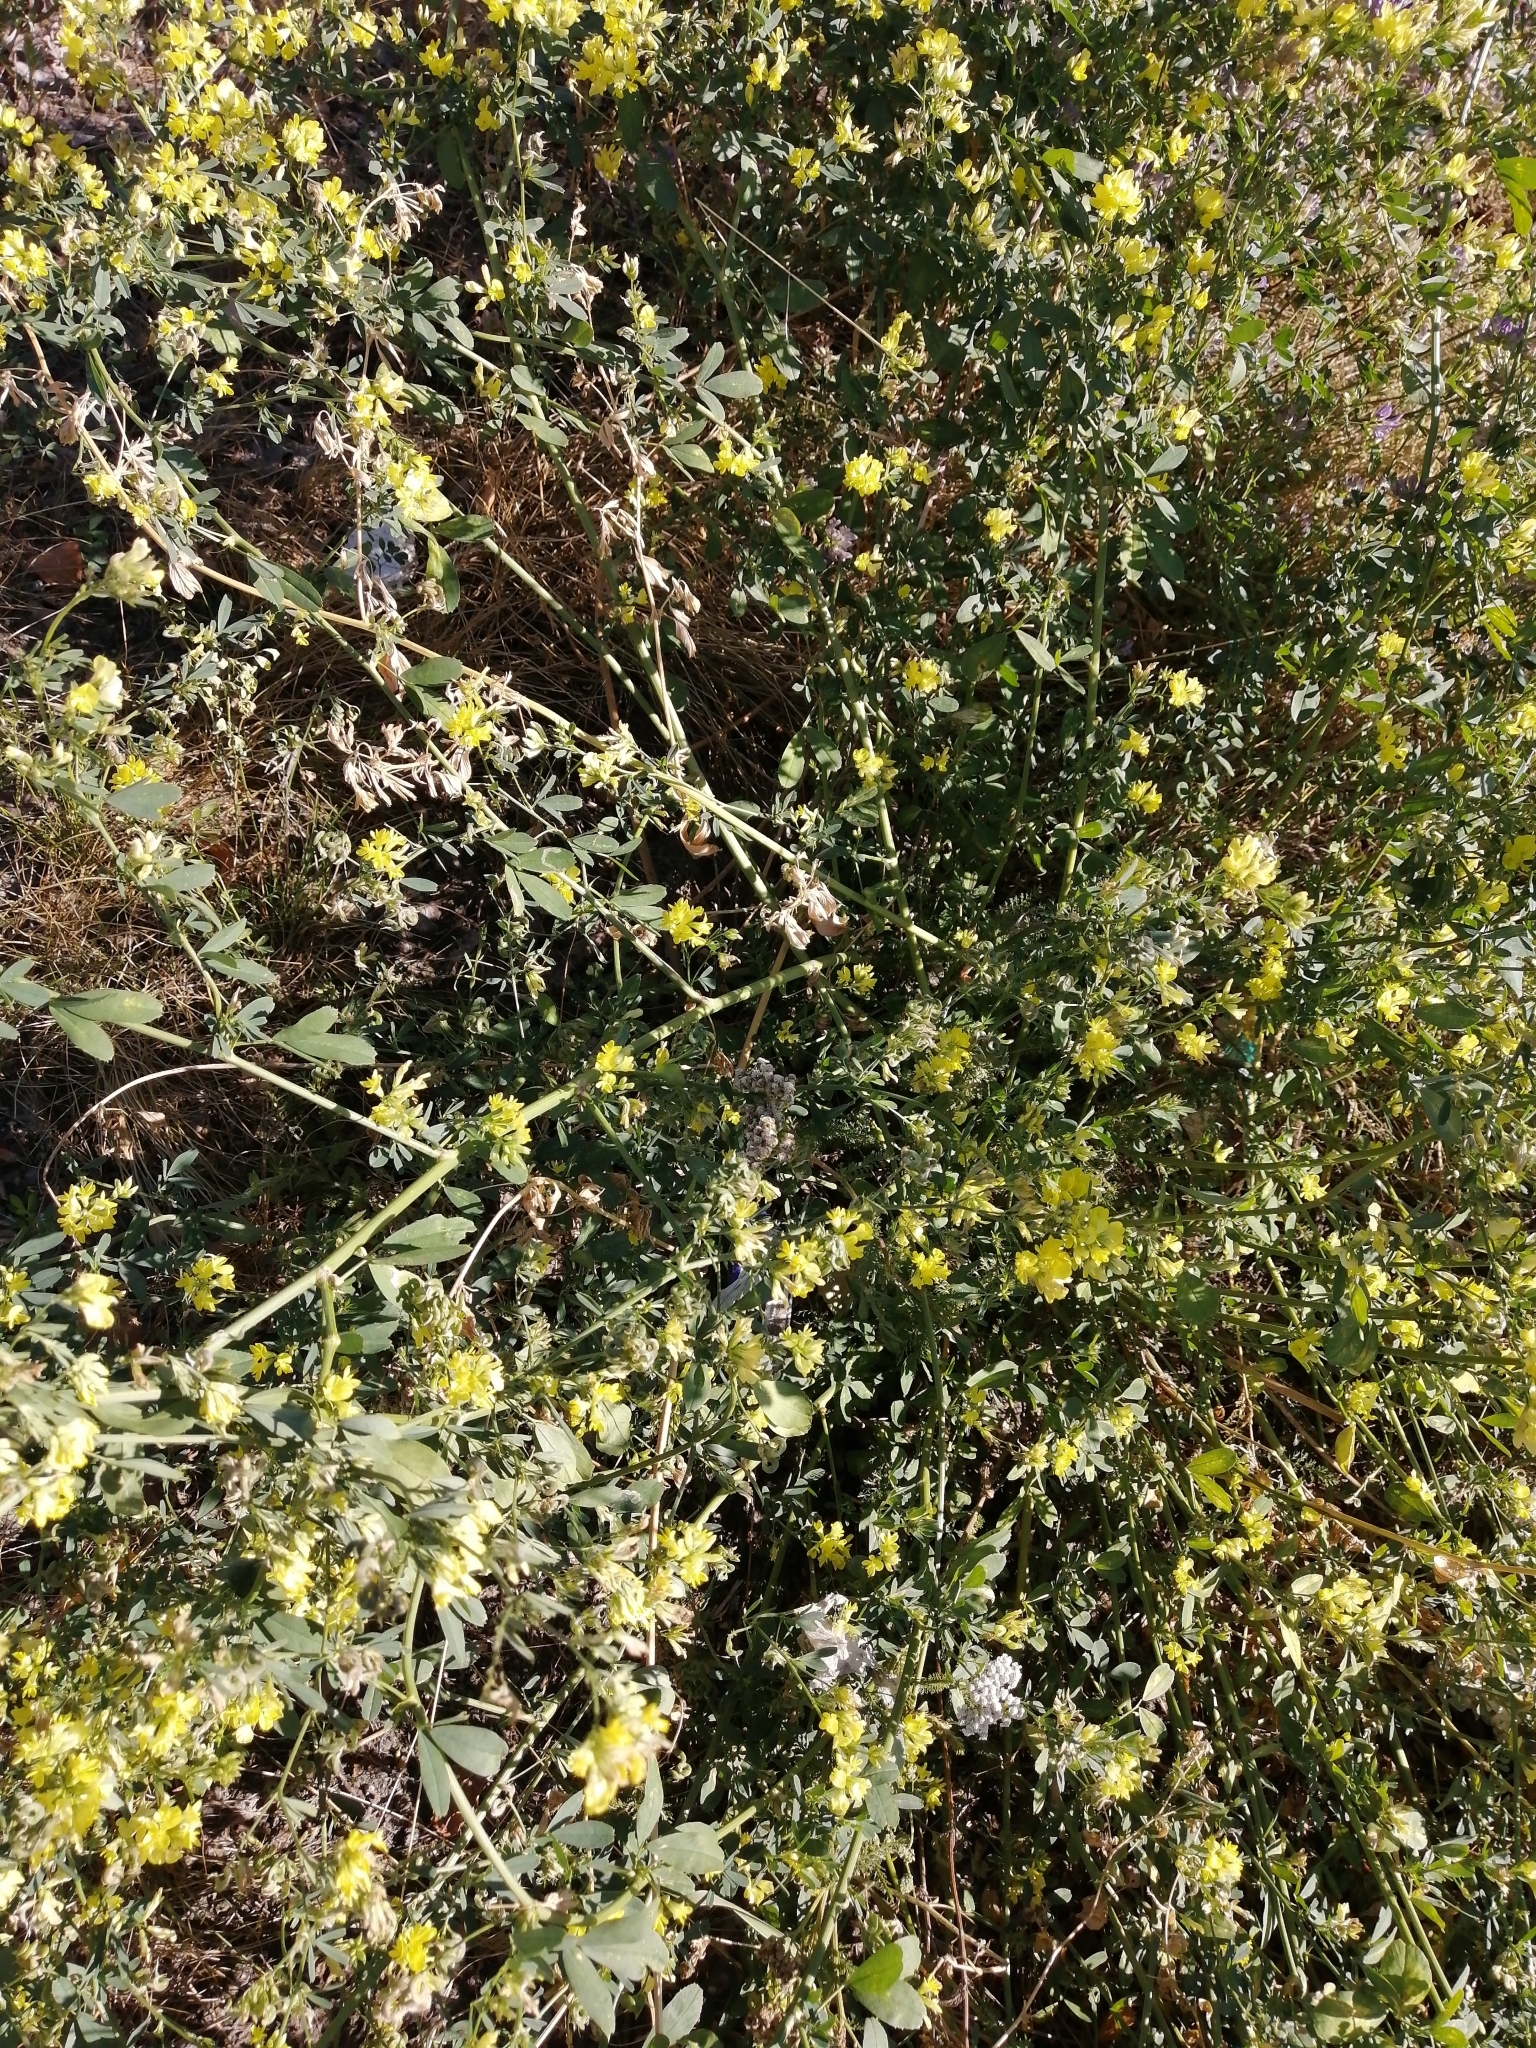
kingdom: Plantae
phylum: Tracheophyta
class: Magnoliopsida
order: Fabales
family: Fabaceae
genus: Medicago
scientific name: Medicago varia
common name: Sand lucerne
